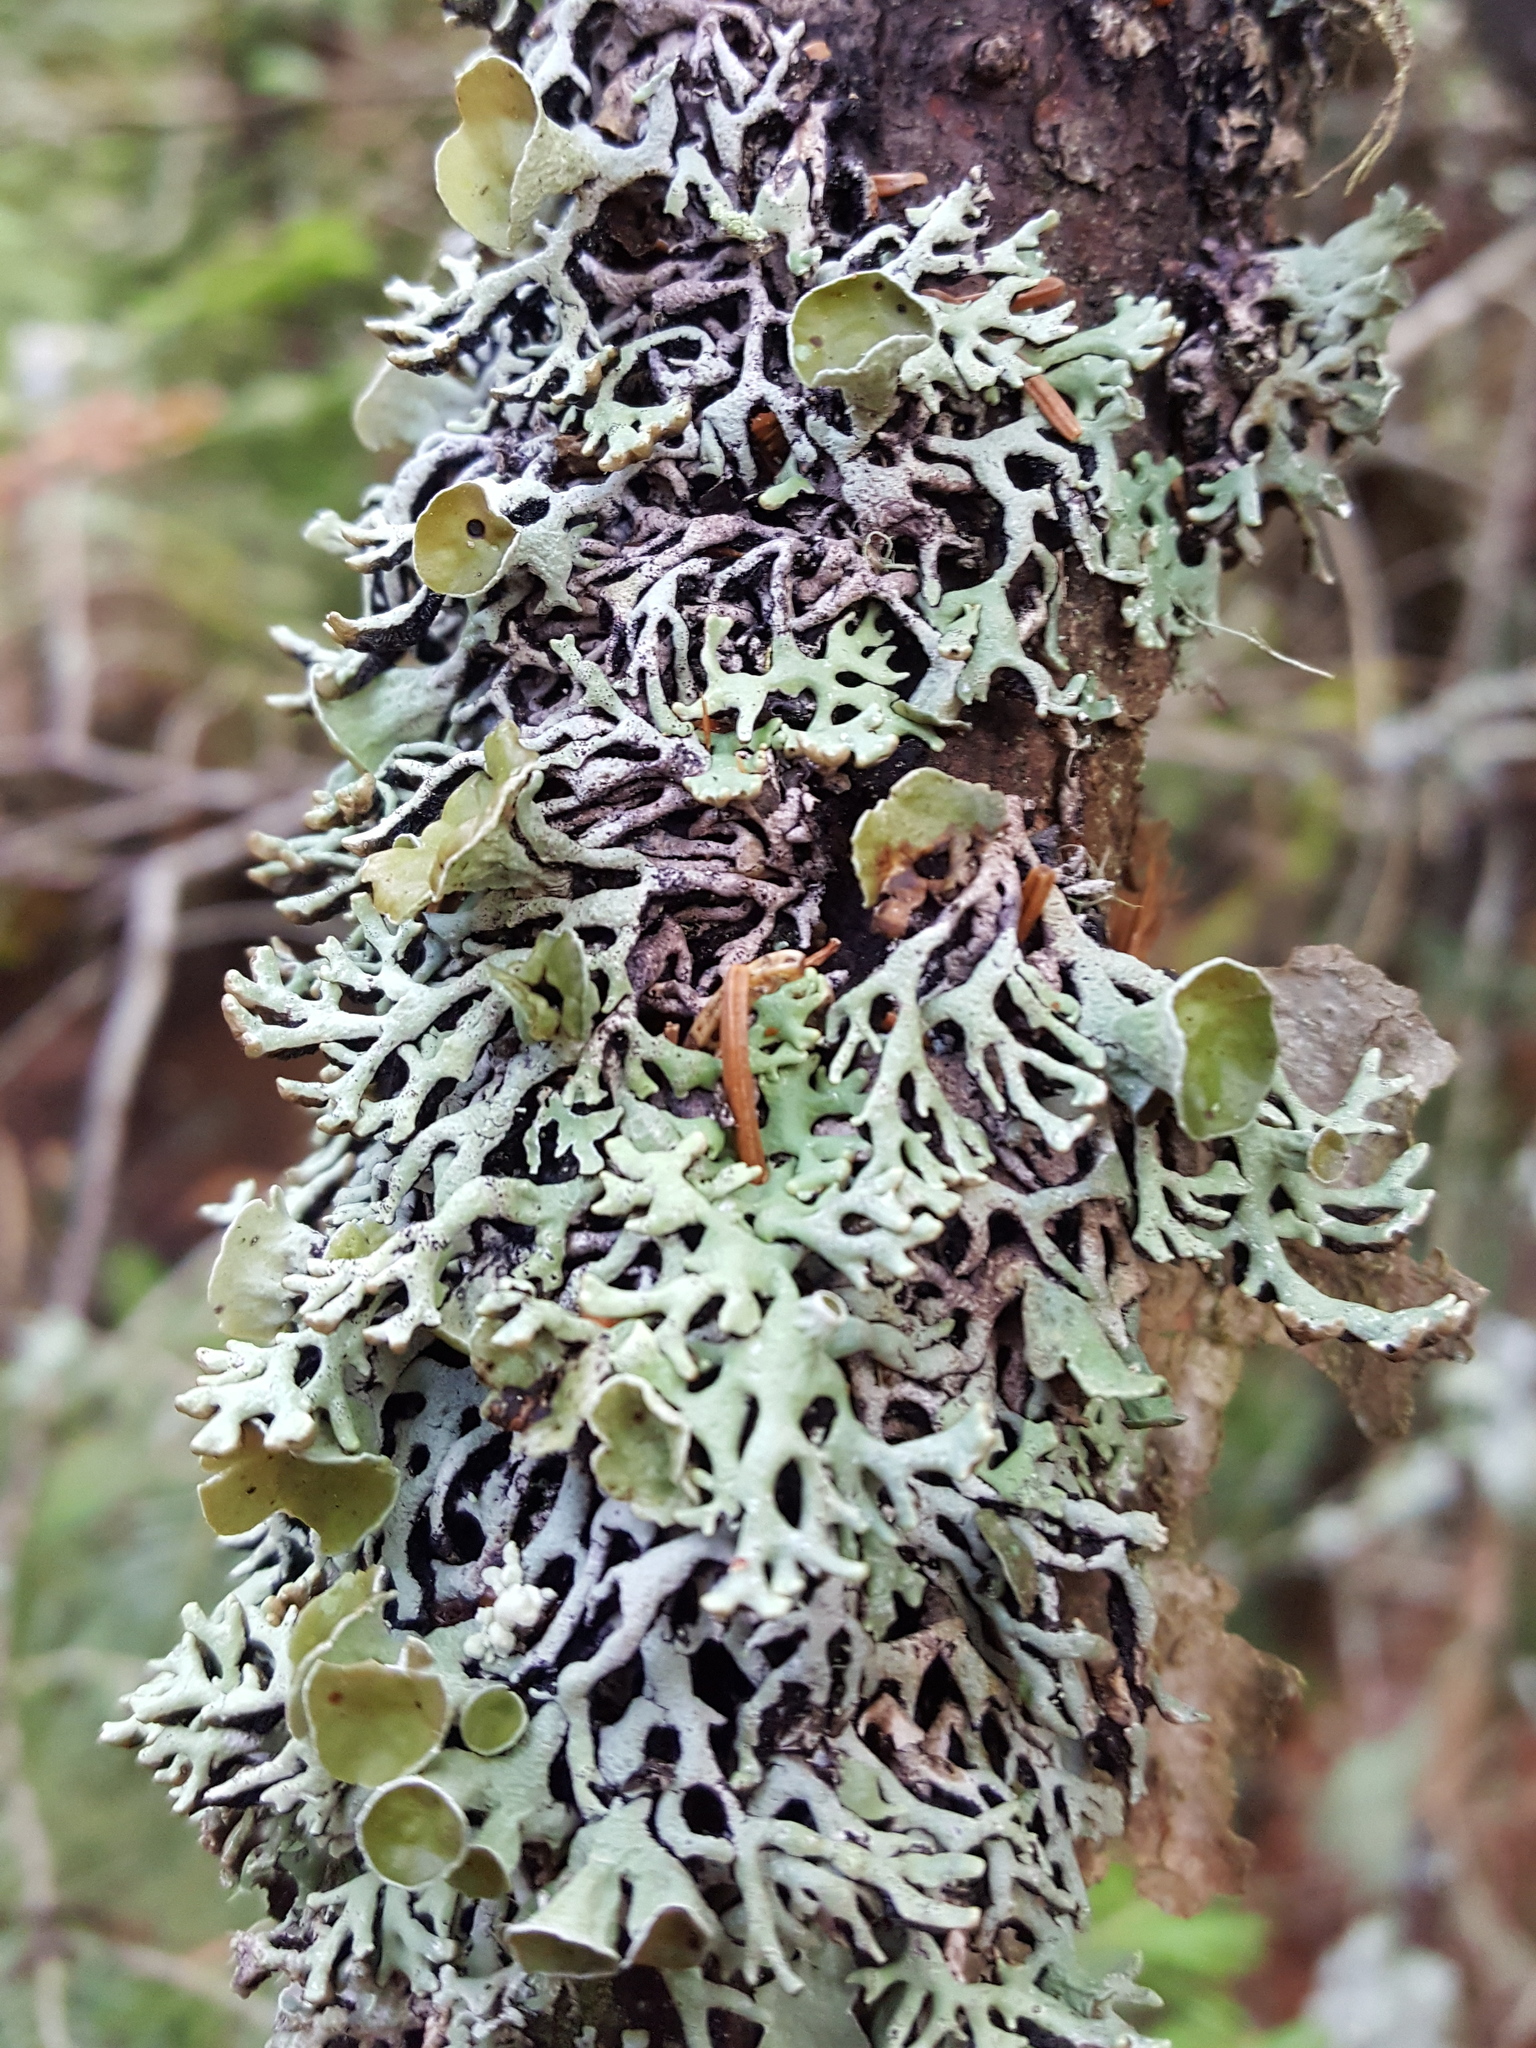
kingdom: Fungi
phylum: Ascomycota
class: Lecanoromycetes
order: Lecanorales
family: Parmeliaceae
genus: Hypogymnia
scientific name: Hypogymnia krogiae
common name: Freckled tube lichen
